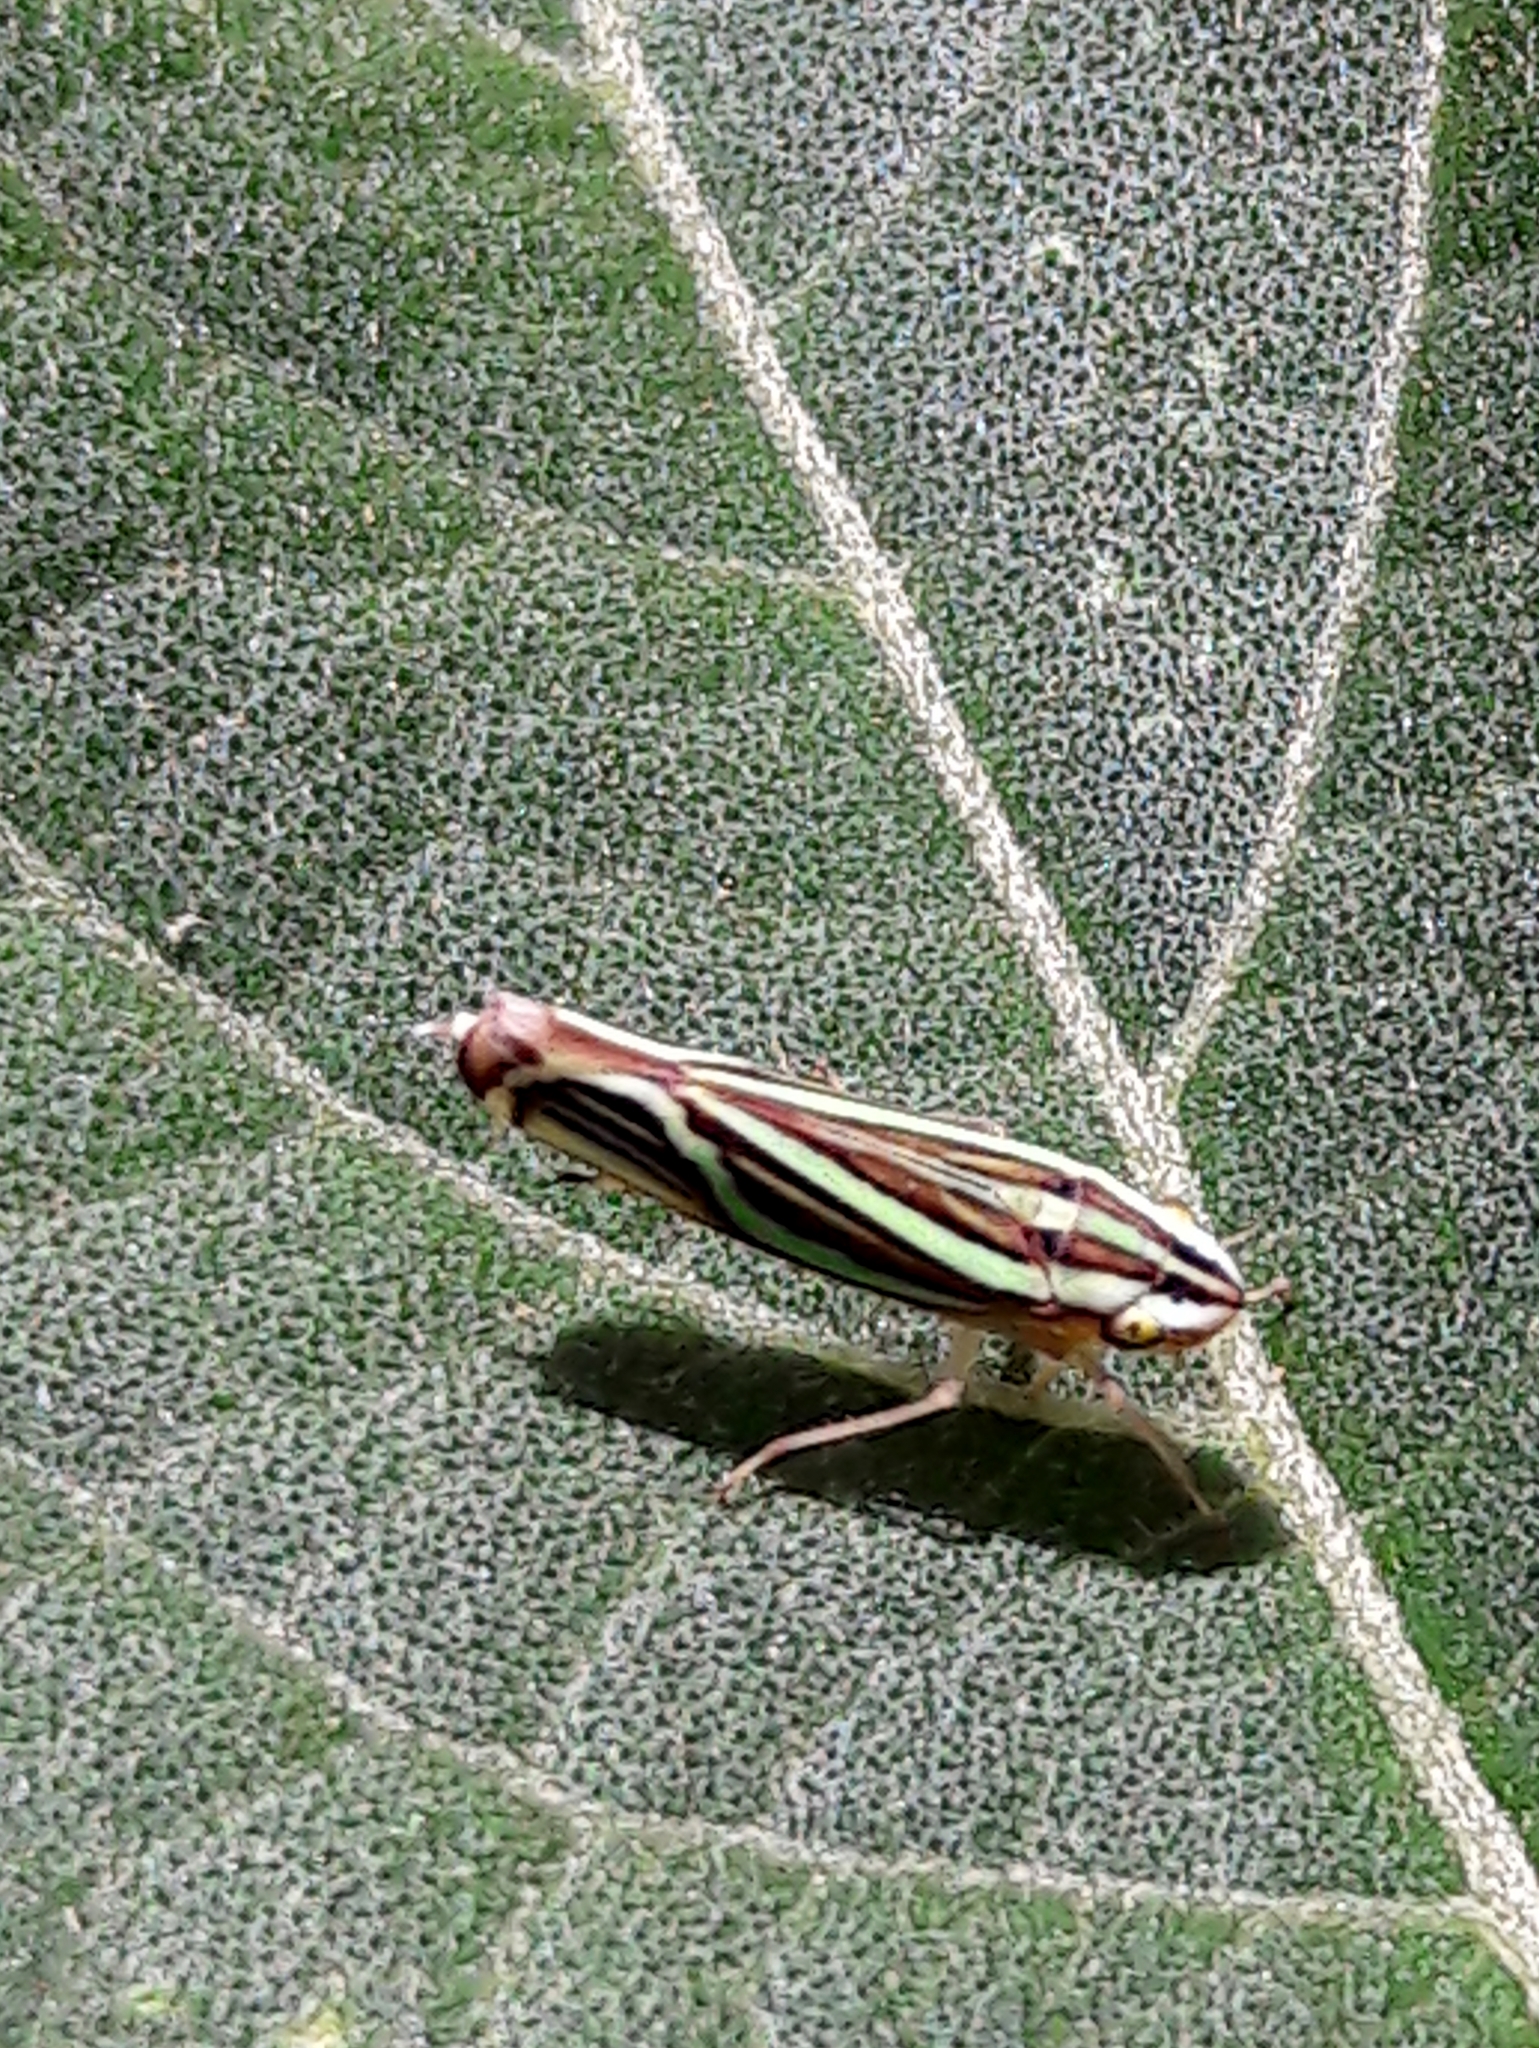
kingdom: Animalia
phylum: Arthropoda
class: Insecta
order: Hemiptera
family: Cicadellidae
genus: Sibovia
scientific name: Sibovia sagata
